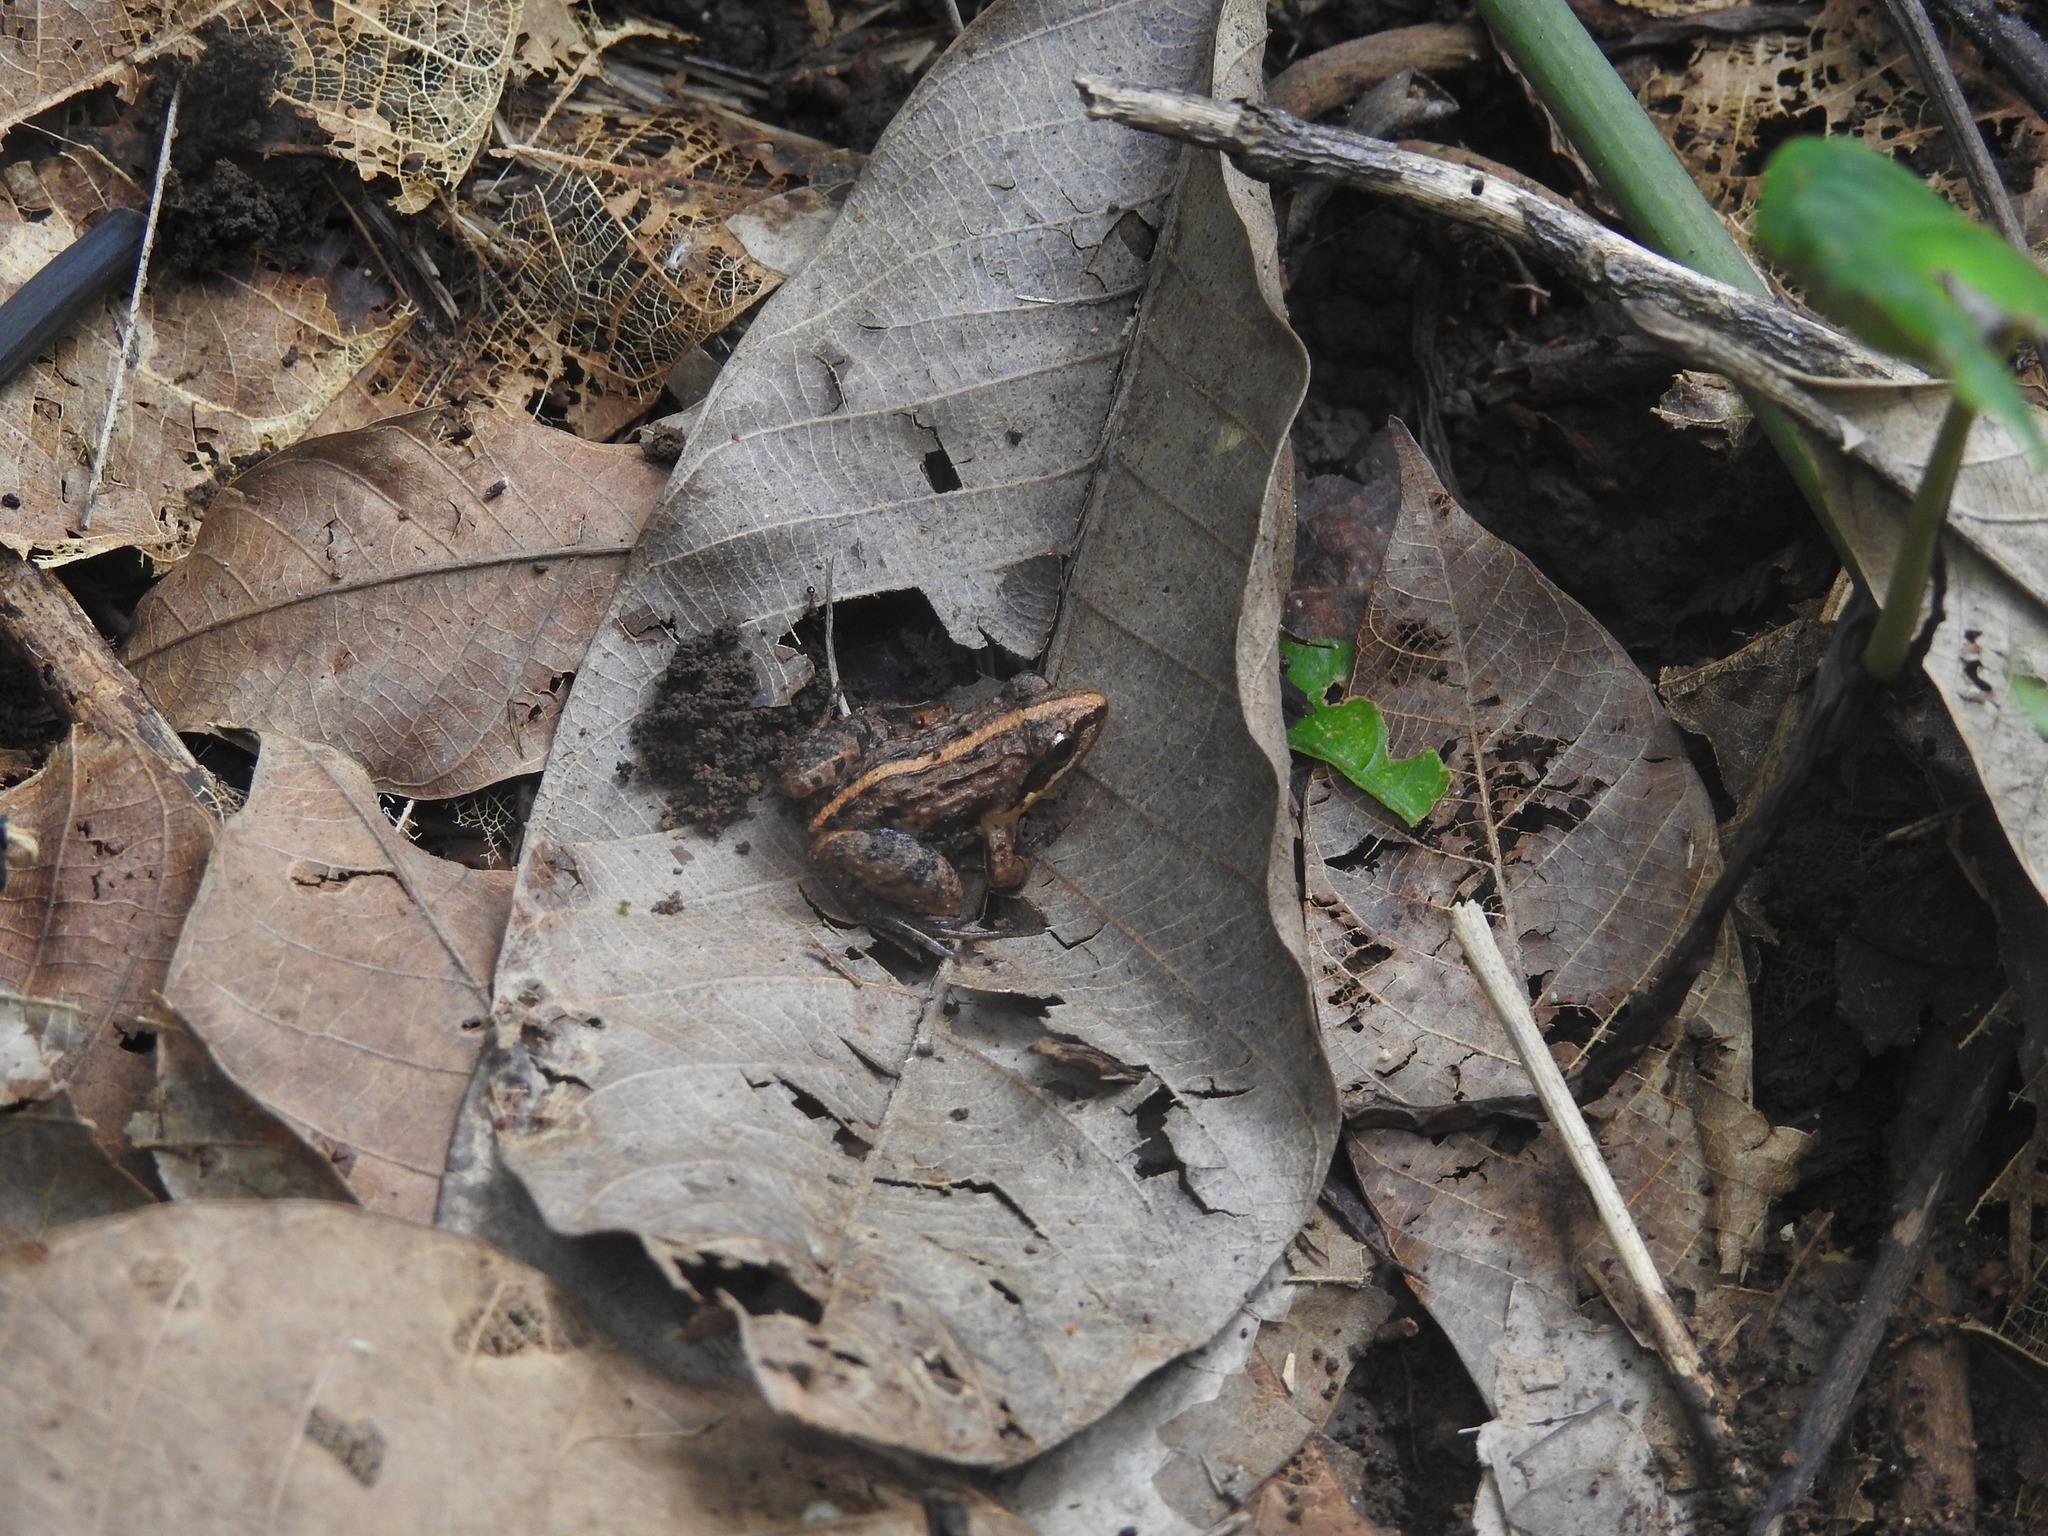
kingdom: Animalia
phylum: Chordata
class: Amphibia
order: Anura
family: Ranixalidae
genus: Indirana
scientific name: Indirana semipalmata
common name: Brown leaping frog
